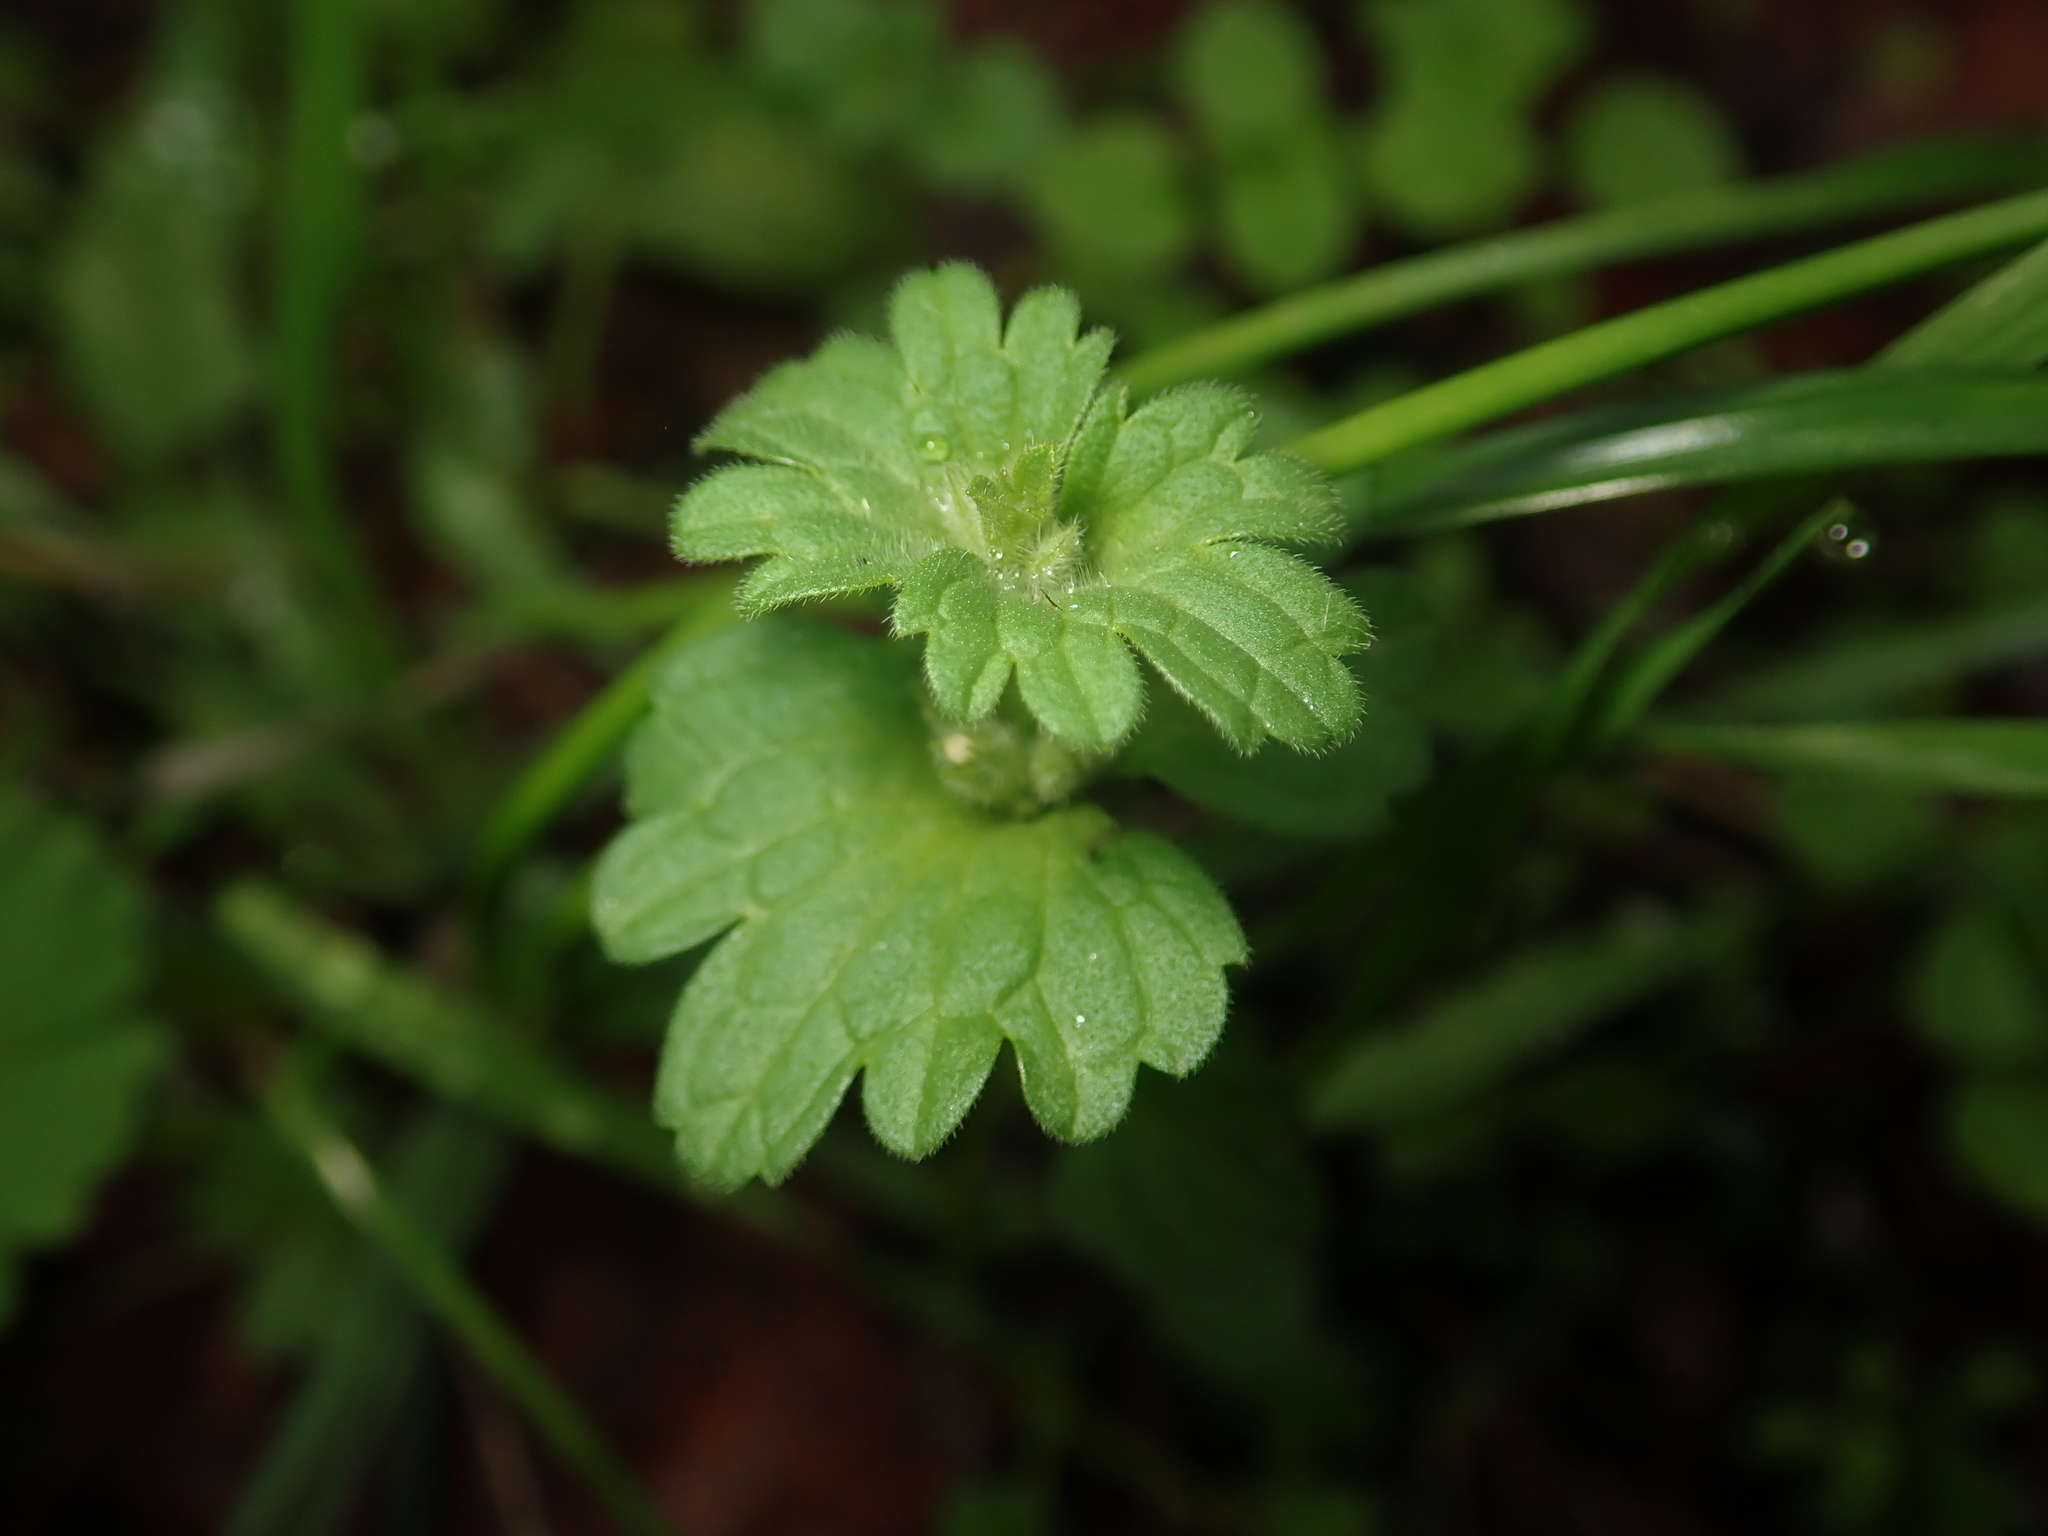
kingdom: Plantae
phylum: Tracheophyta
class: Magnoliopsida
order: Lamiales
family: Lamiaceae
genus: Lamium
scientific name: Lamium amplexicaule
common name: Henbit dead-nettle
